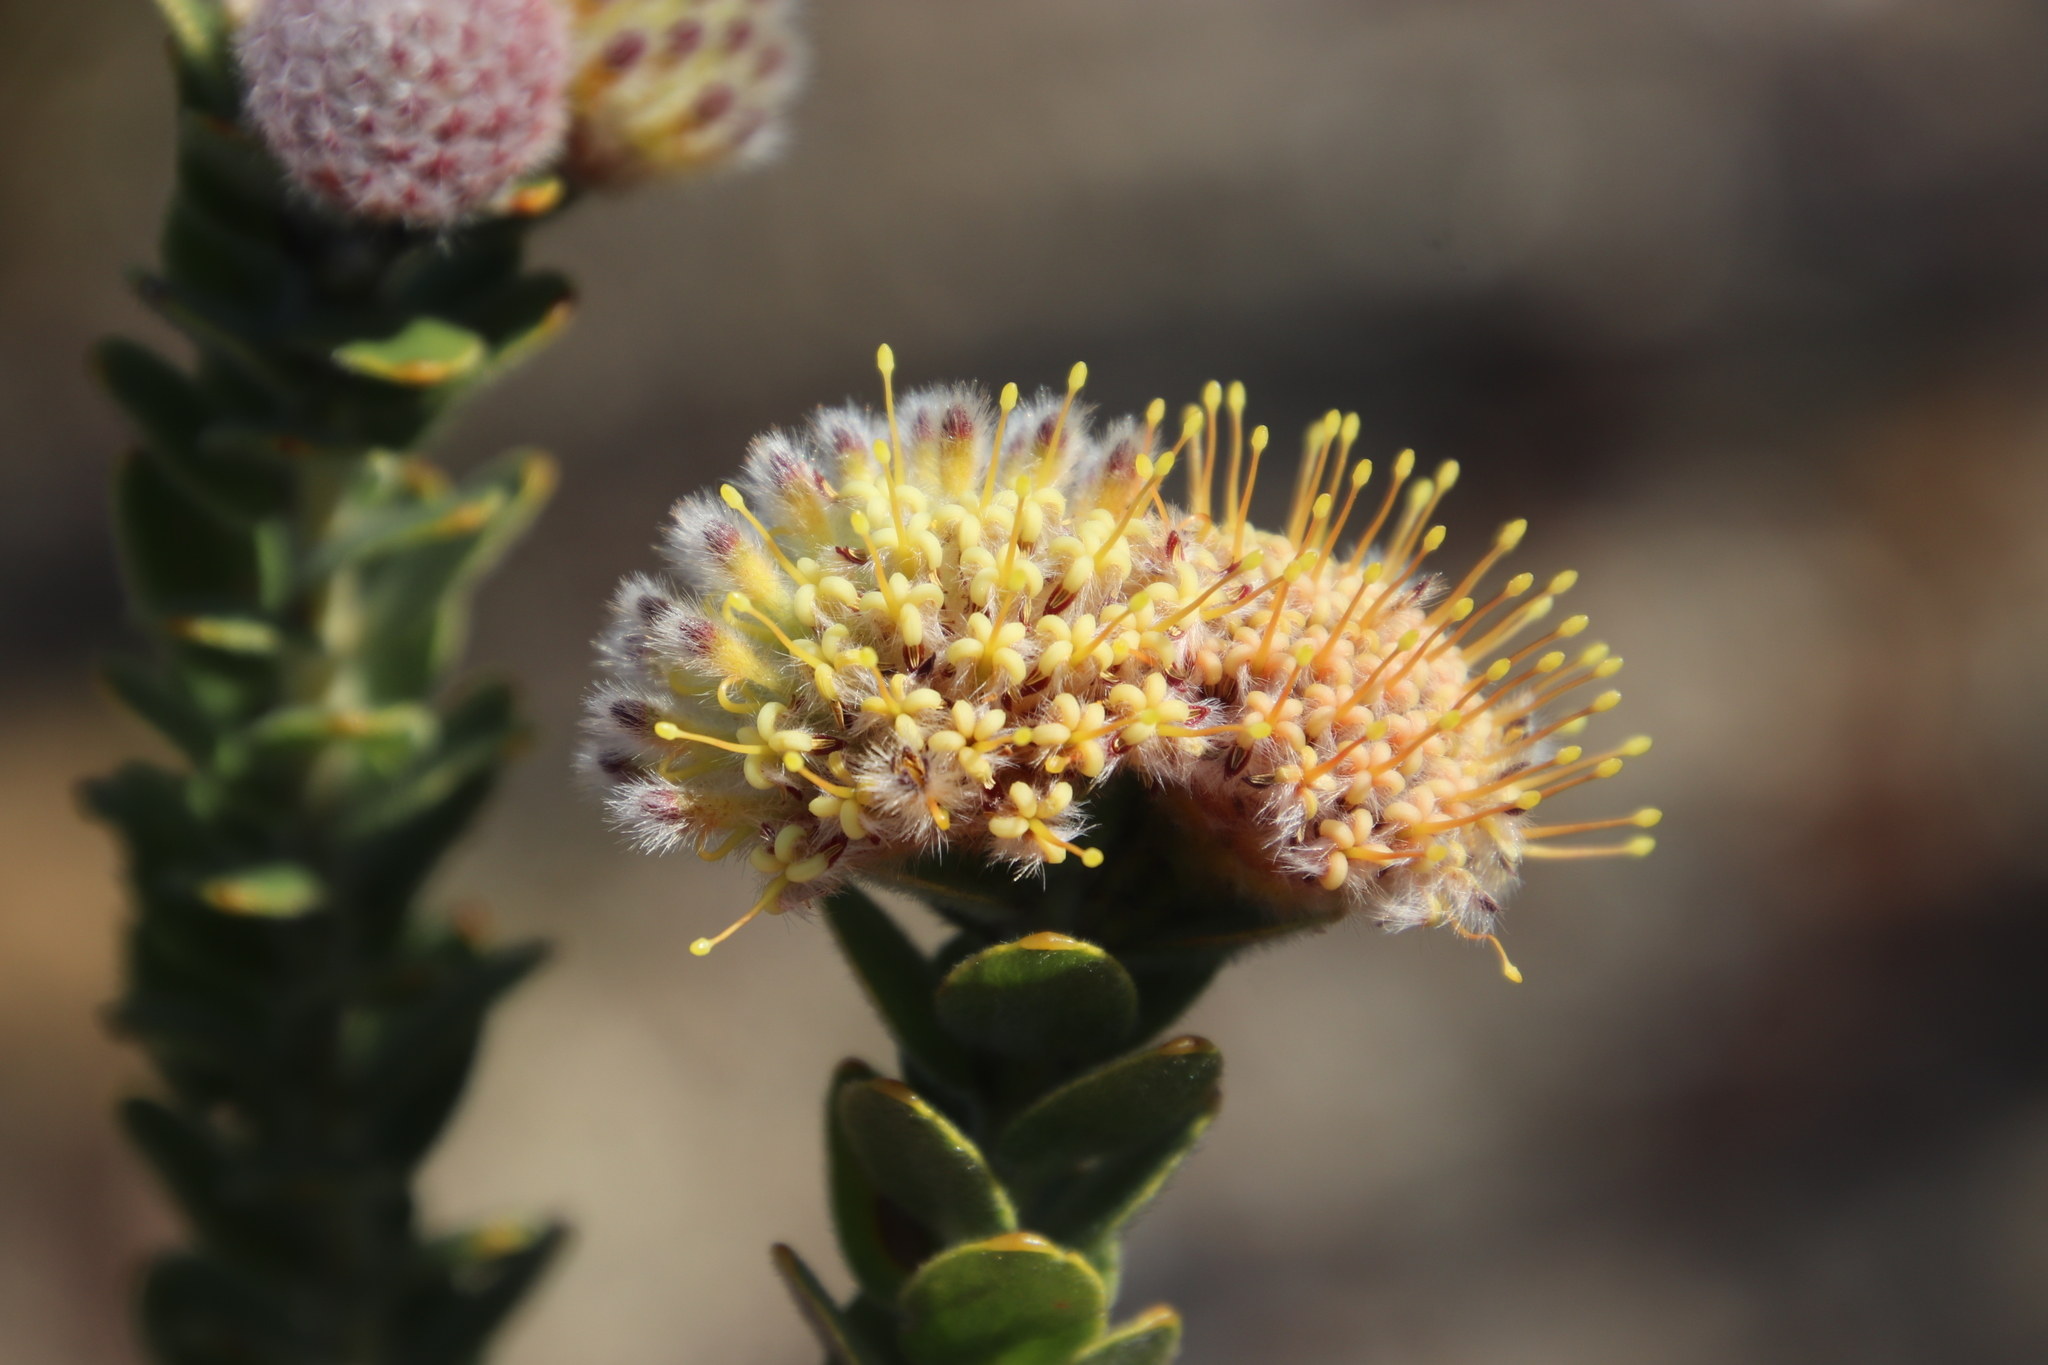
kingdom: Plantae
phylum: Tracheophyta
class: Magnoliopsida
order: Proteales
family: Proteaceae
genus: Leucospermum
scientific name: Leucospermum truncatulum
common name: Oval-leaf pincushion
